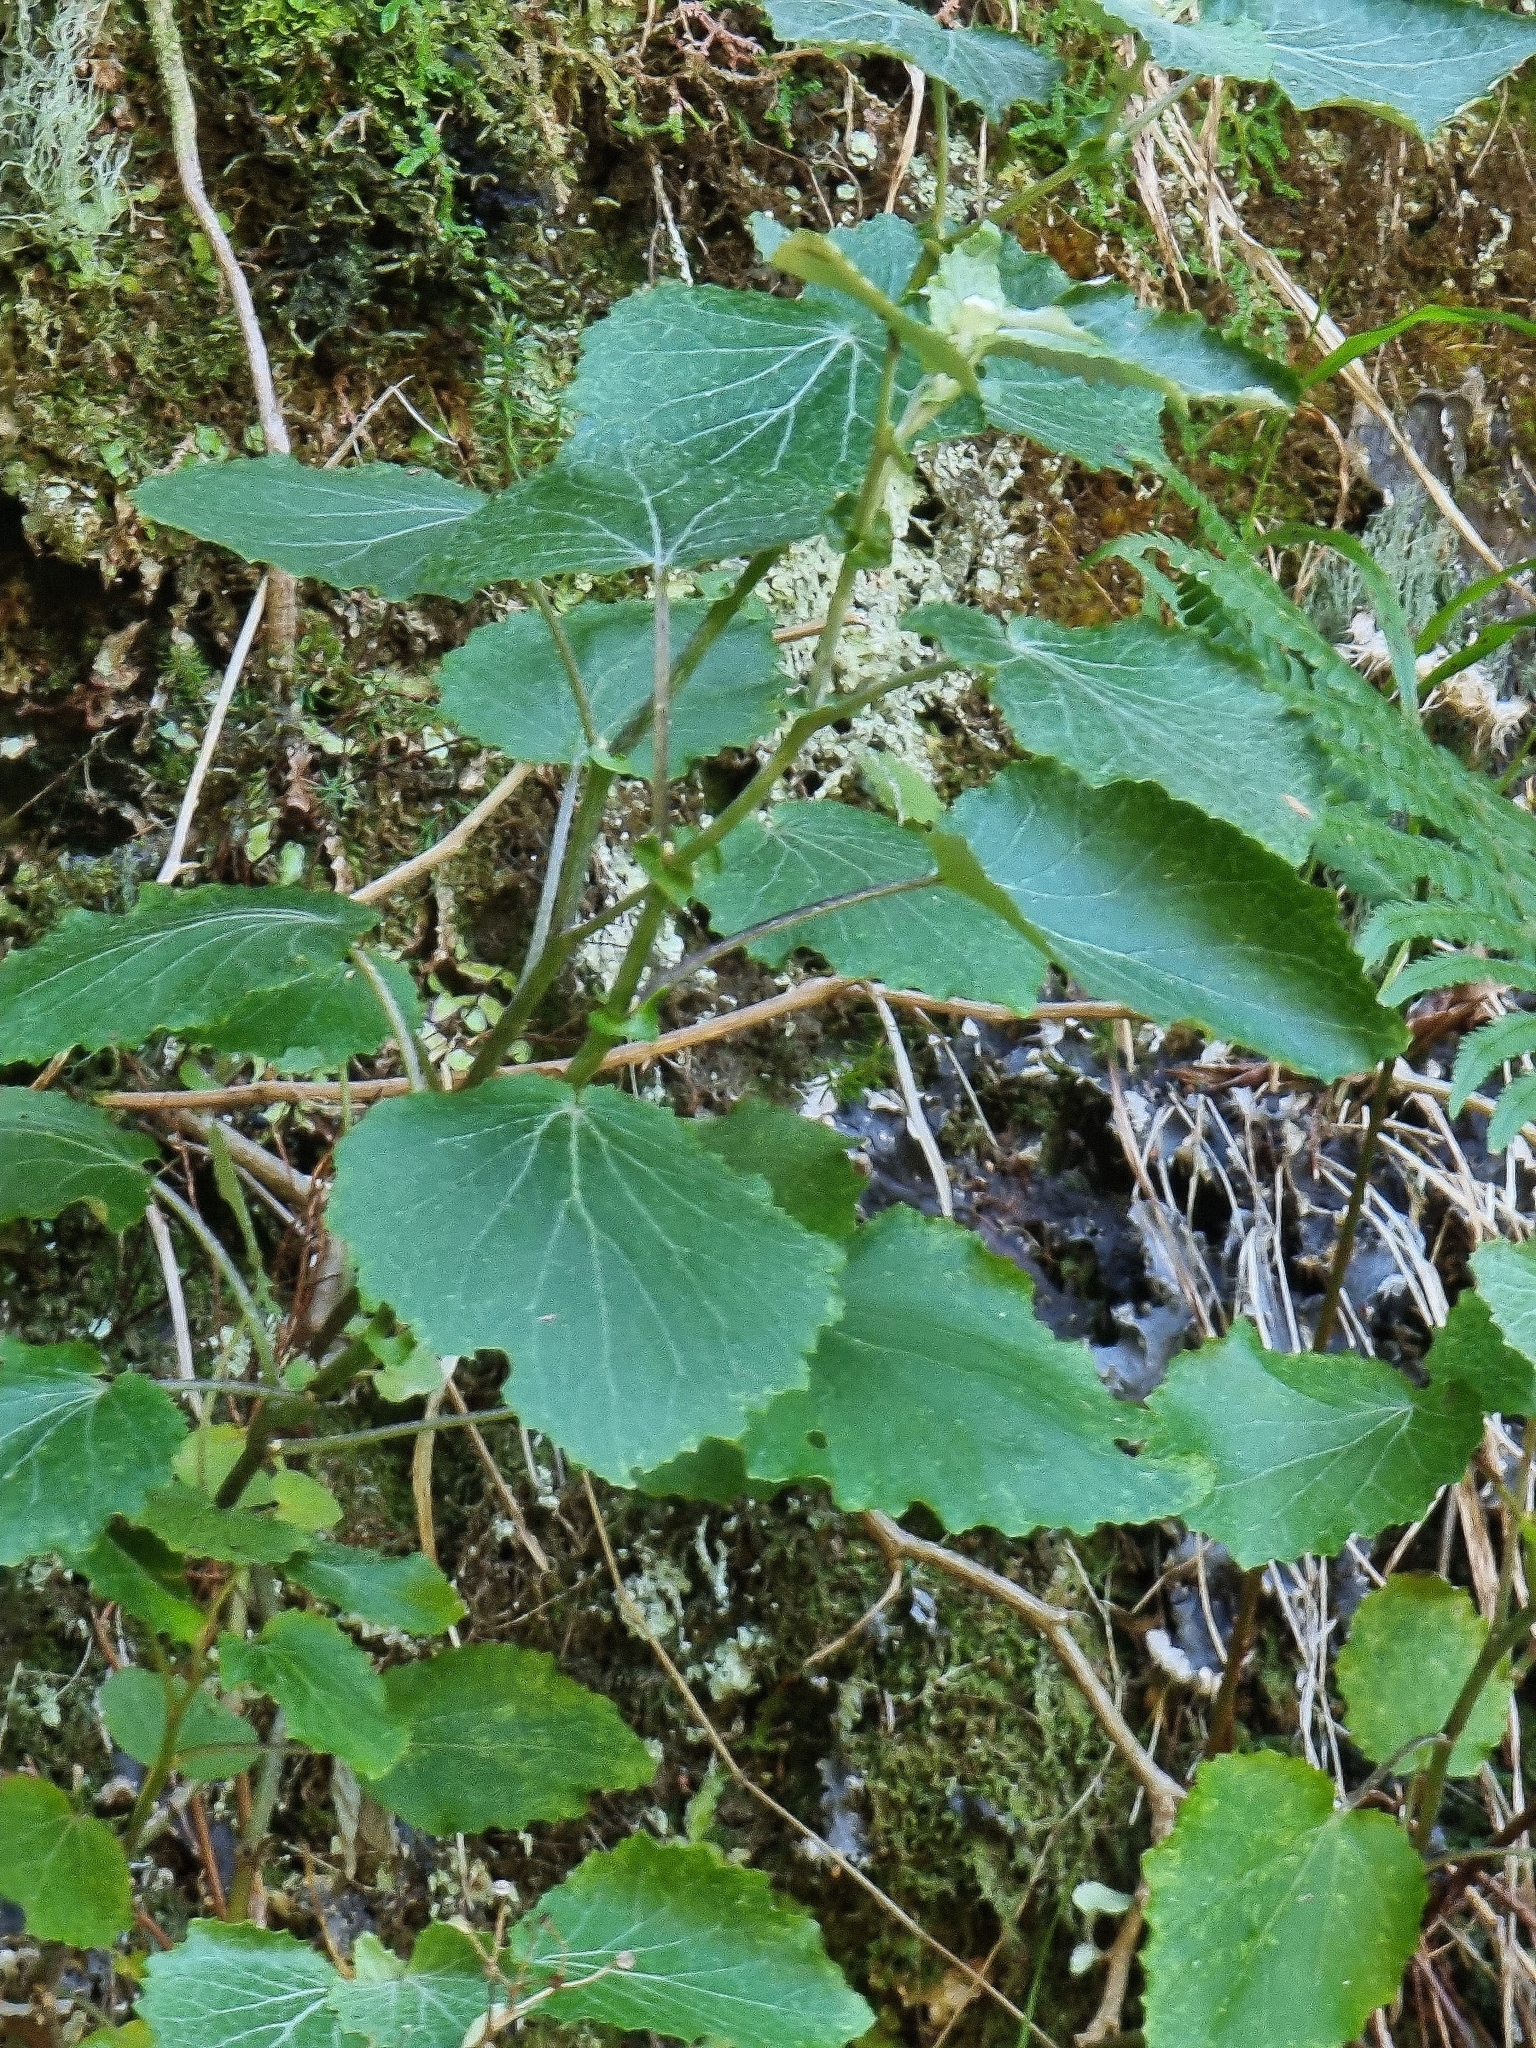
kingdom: Plantae
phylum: Tracheophyta
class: Magnoliopsida
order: Asterales
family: Asteraceae
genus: Pericallis
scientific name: Pericallis aurita
